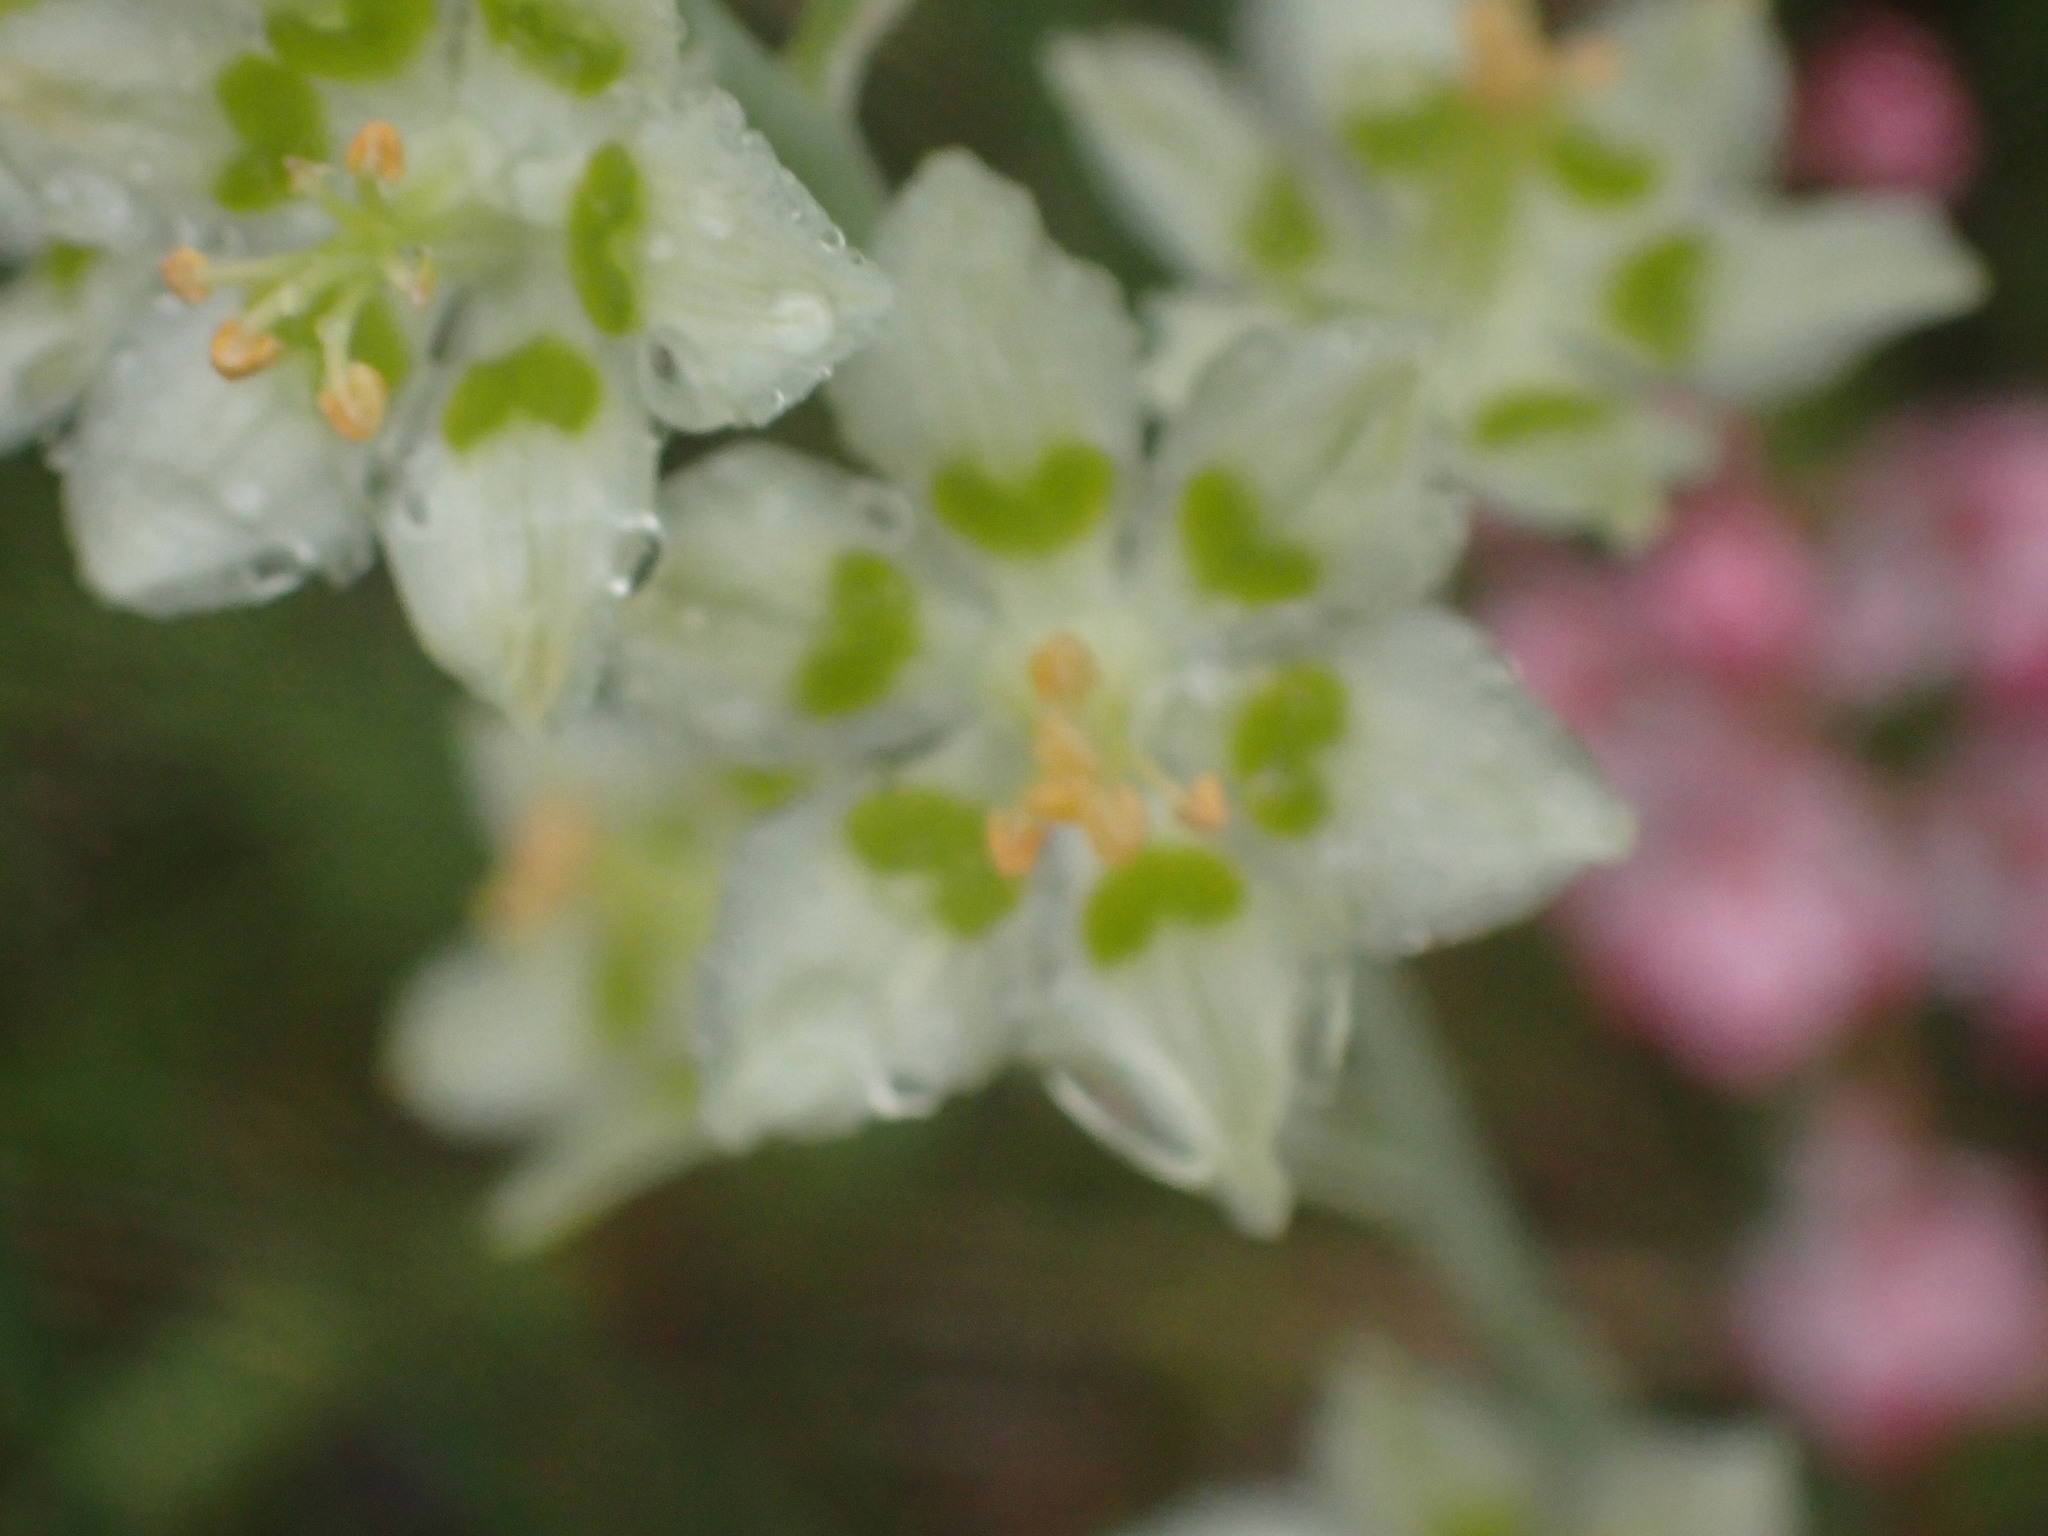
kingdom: Plantae
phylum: Tracheophyta
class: Liliopsida
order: Liliales
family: Melanthiaceae
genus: Anticlea
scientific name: Anticlea elegans
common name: Mountain death camas
